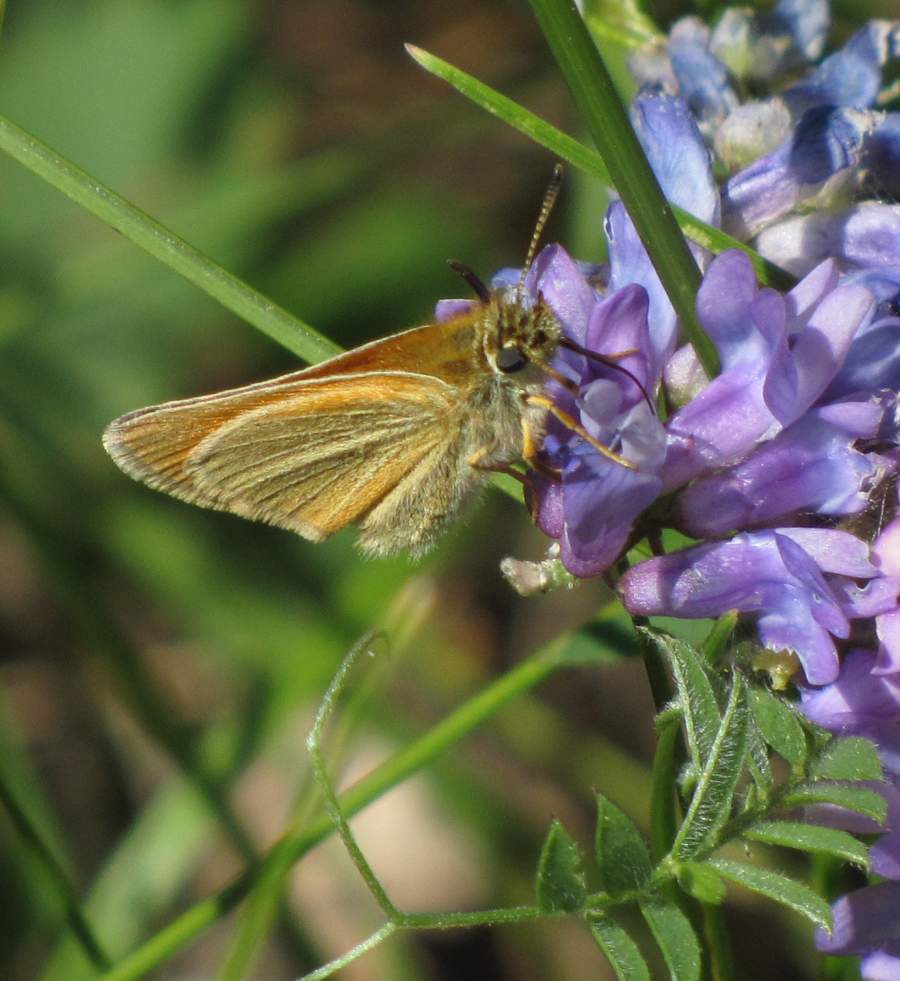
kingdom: Animalia
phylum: Arthropoda
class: Insecta
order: Lepidoptera
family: Hesperiidae
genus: Thymelicus
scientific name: Thymelicus lineola
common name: Essex skipper
